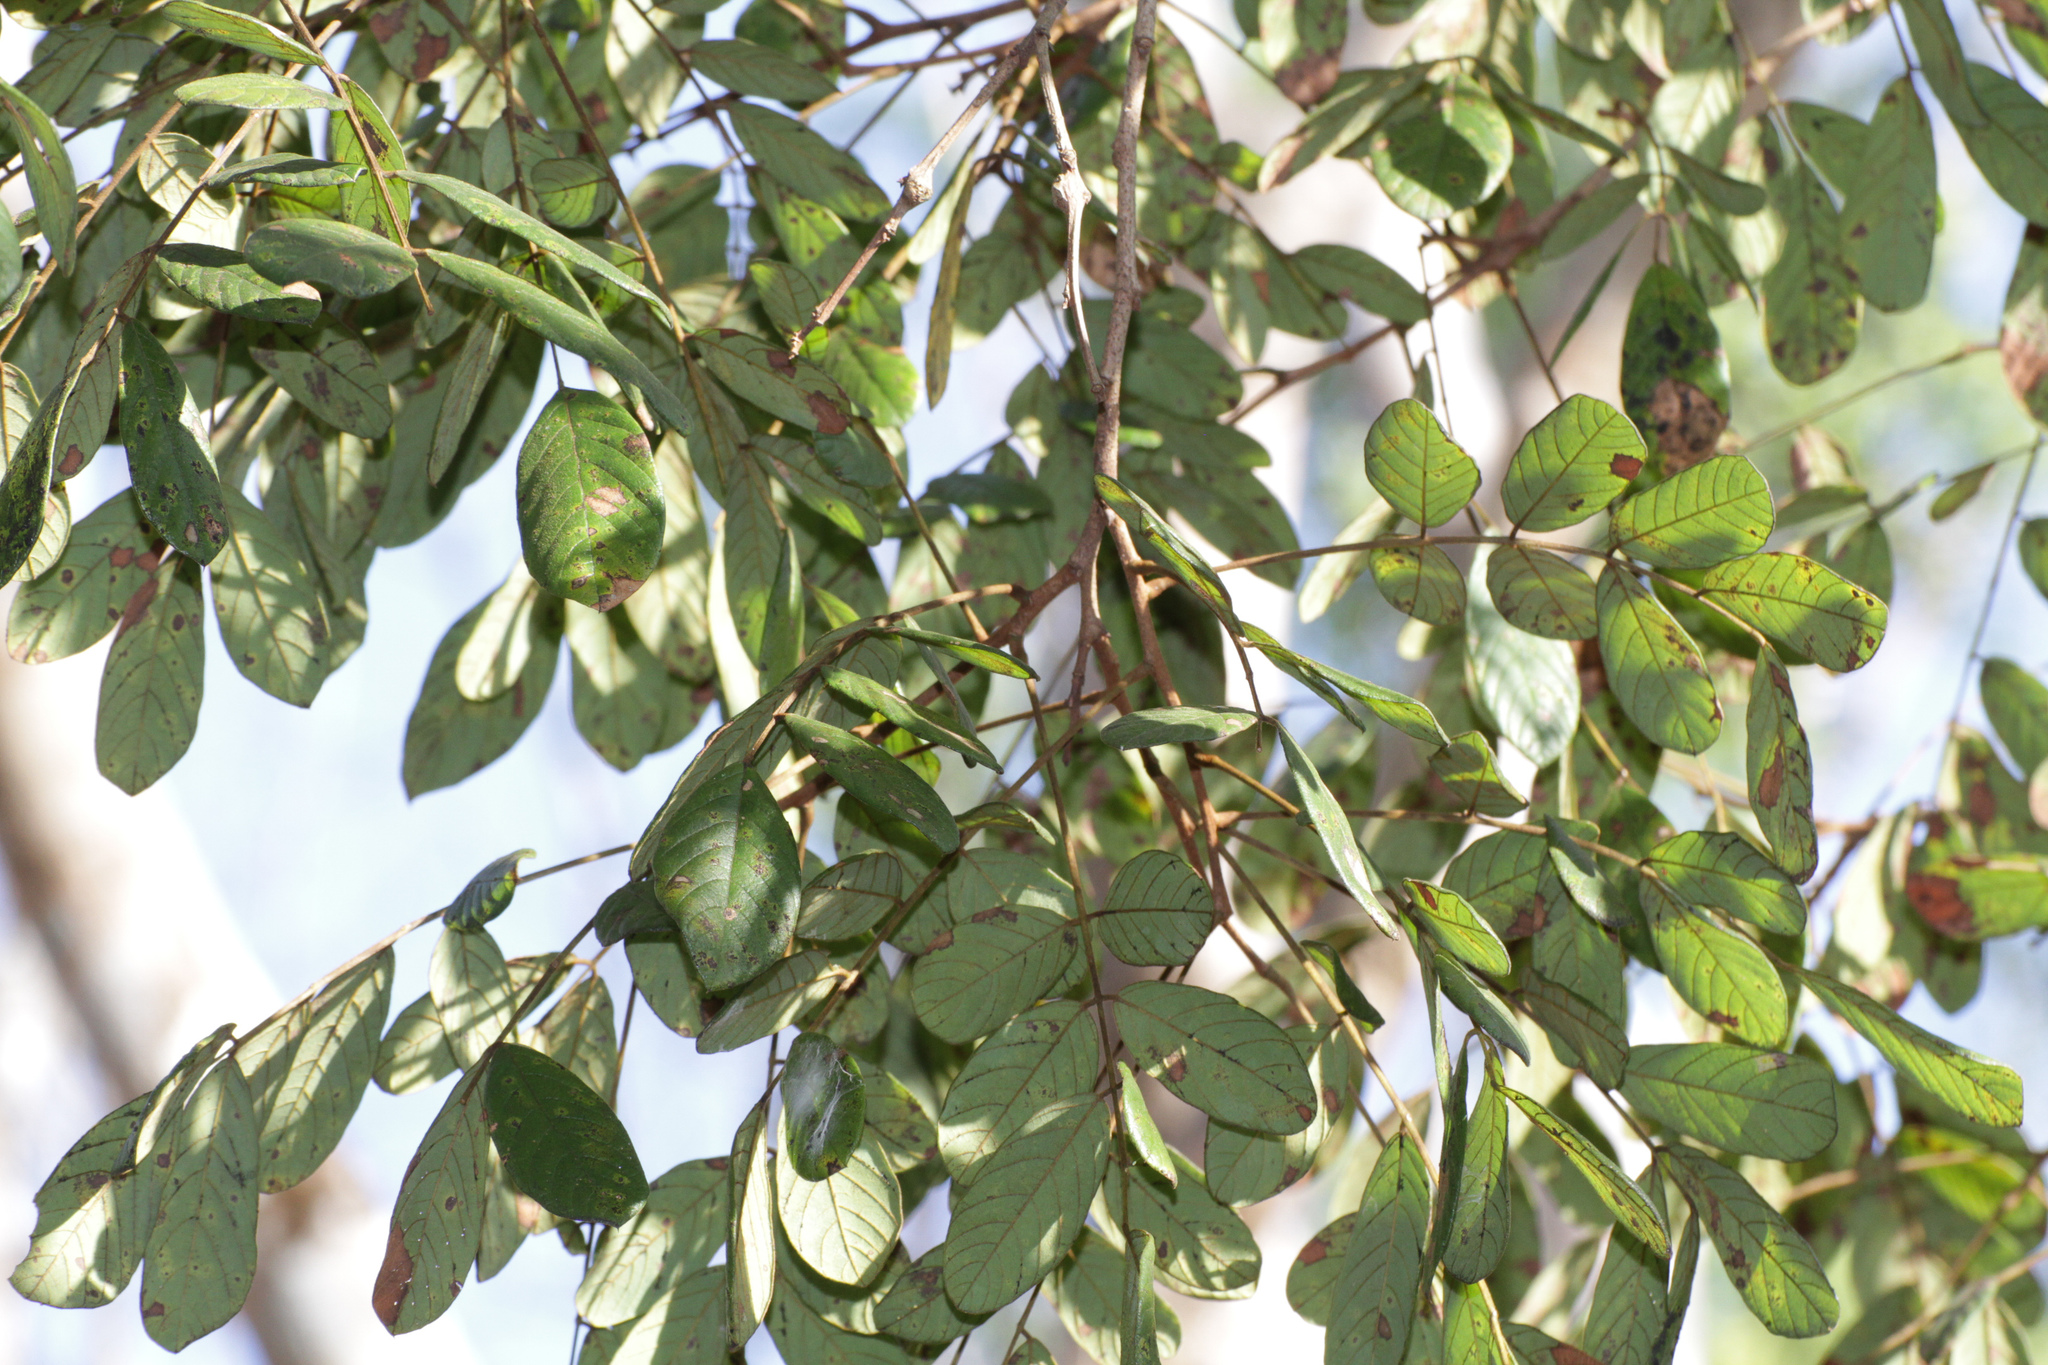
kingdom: Plantae
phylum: Tracheophyta
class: Magnoliopsida
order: Fabales
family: Fabaceae
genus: Lonchocarpus
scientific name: Lonchocarpus rugosus
